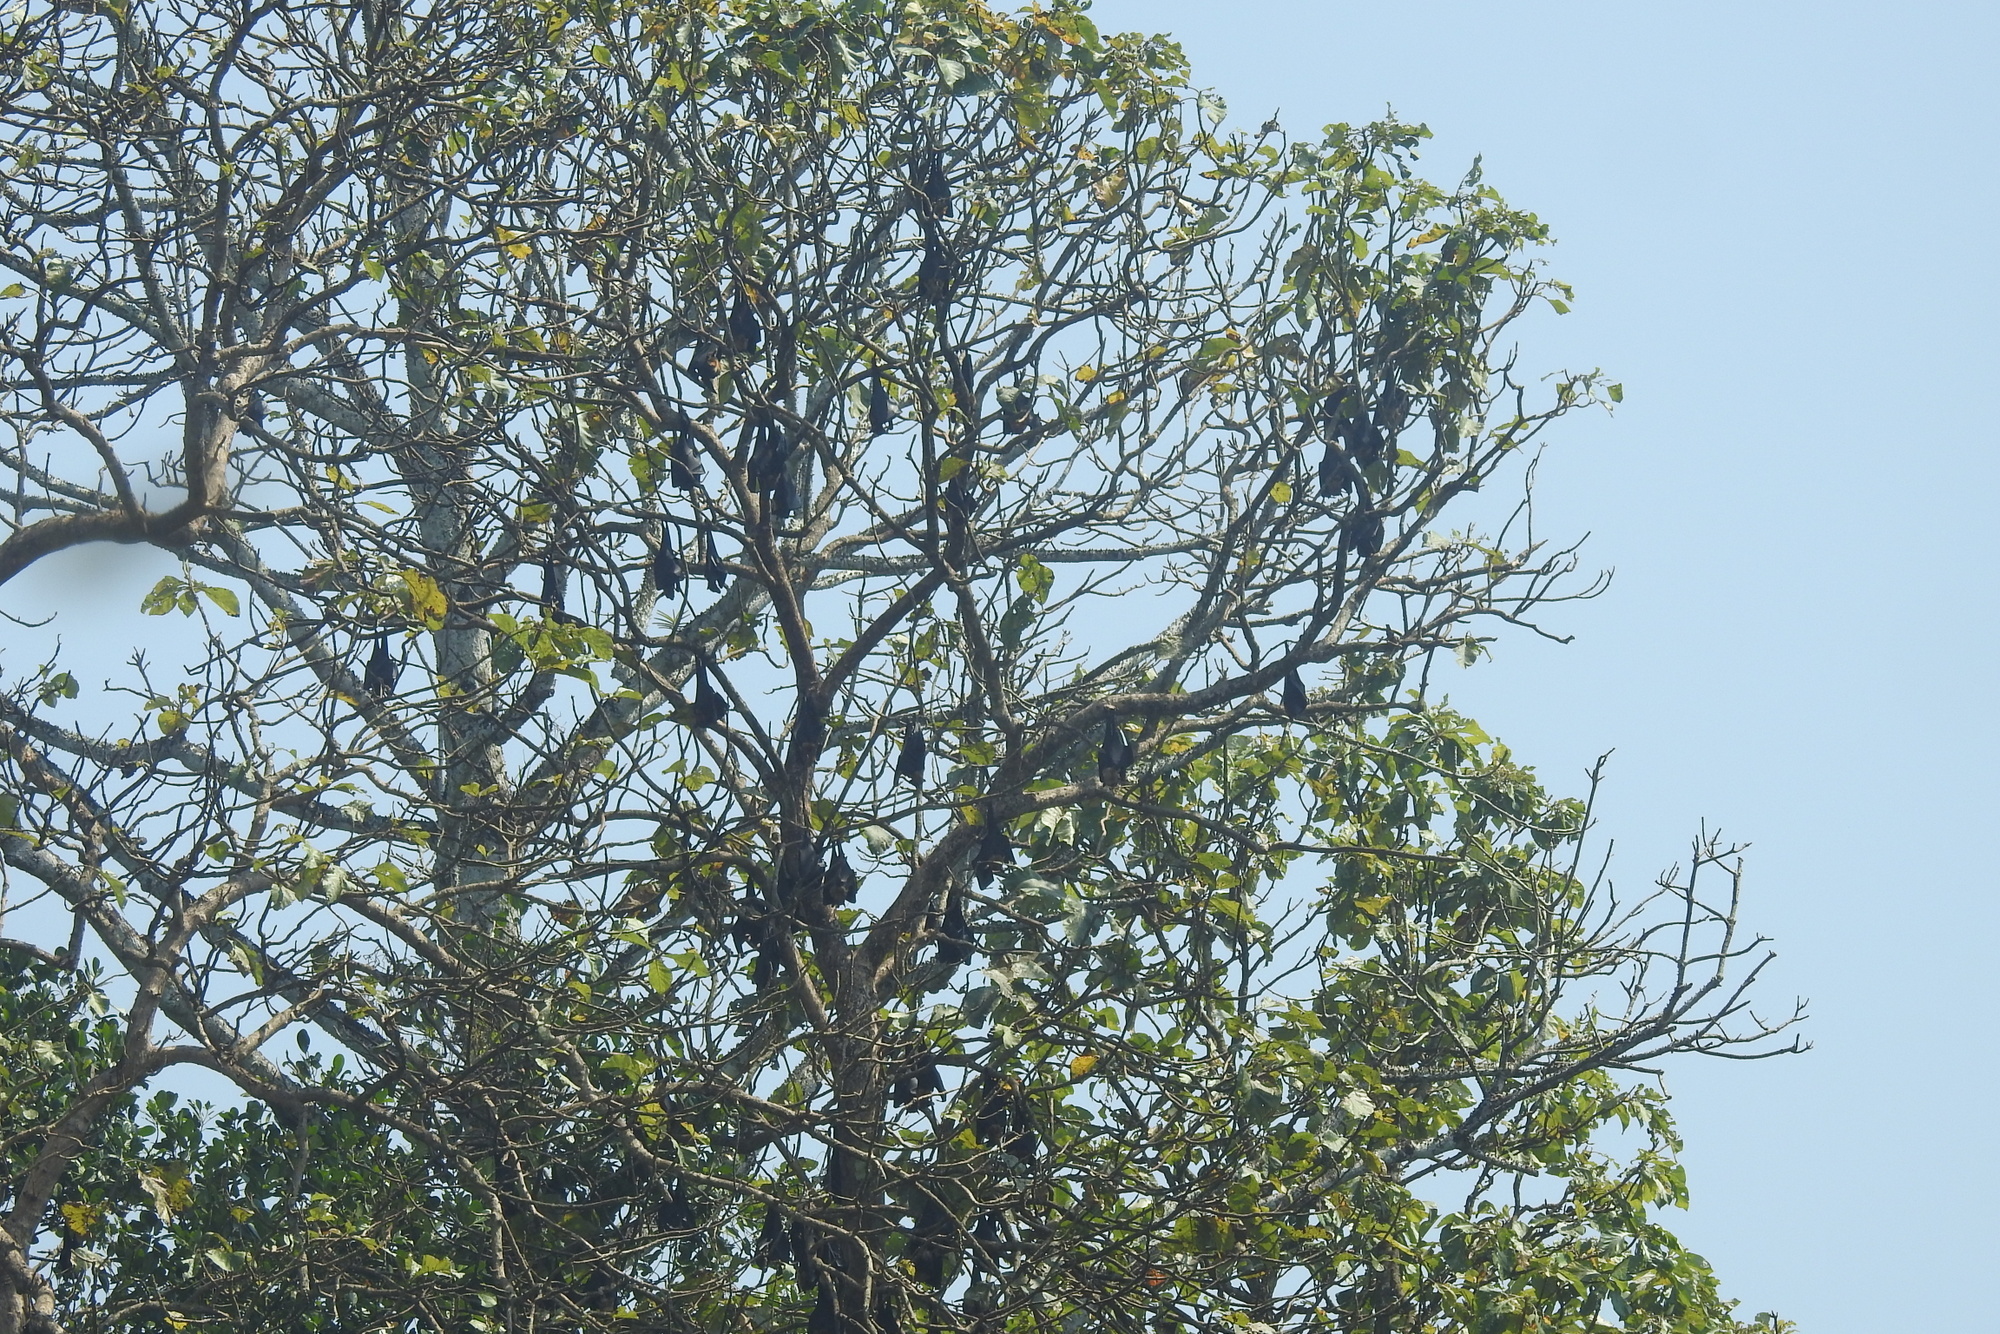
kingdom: Animalia
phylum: Chordata
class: Mammalia
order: Chiroptera
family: Pteropodidae
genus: Pteropus
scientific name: Pteropus vampyrus
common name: Large flying fox
